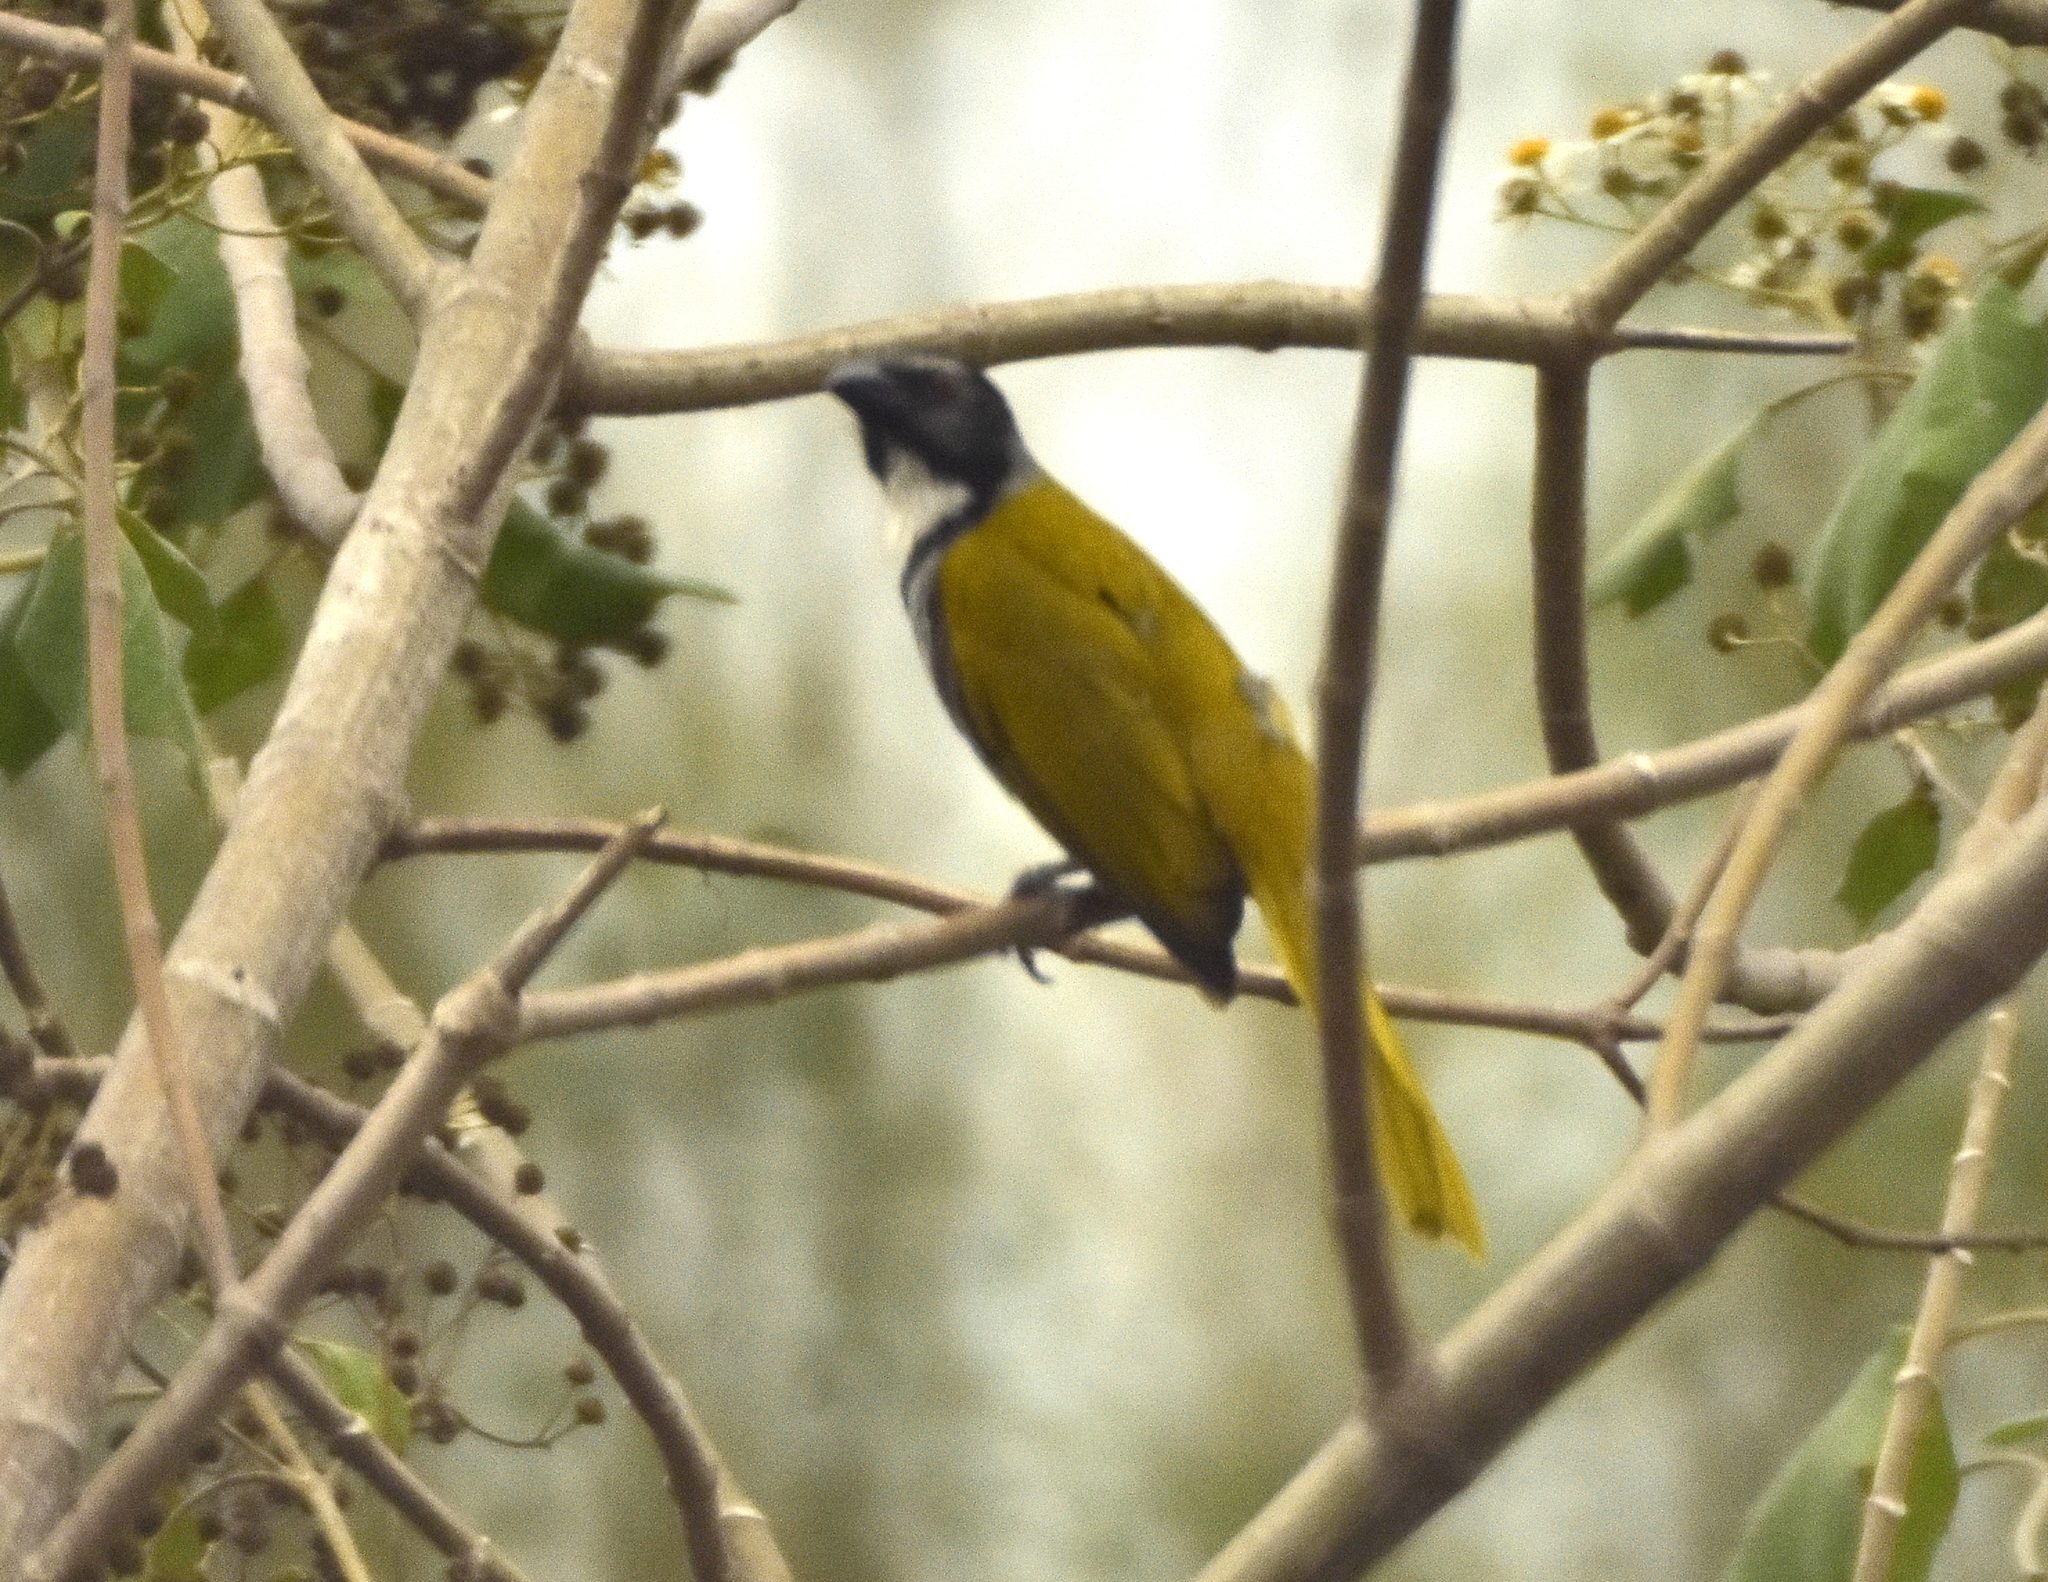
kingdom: Animalia
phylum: Chordata
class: Aves
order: Passeriformes
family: Thraupidae
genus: Saltator
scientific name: Saltator atriceps
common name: Black-headed saltator
